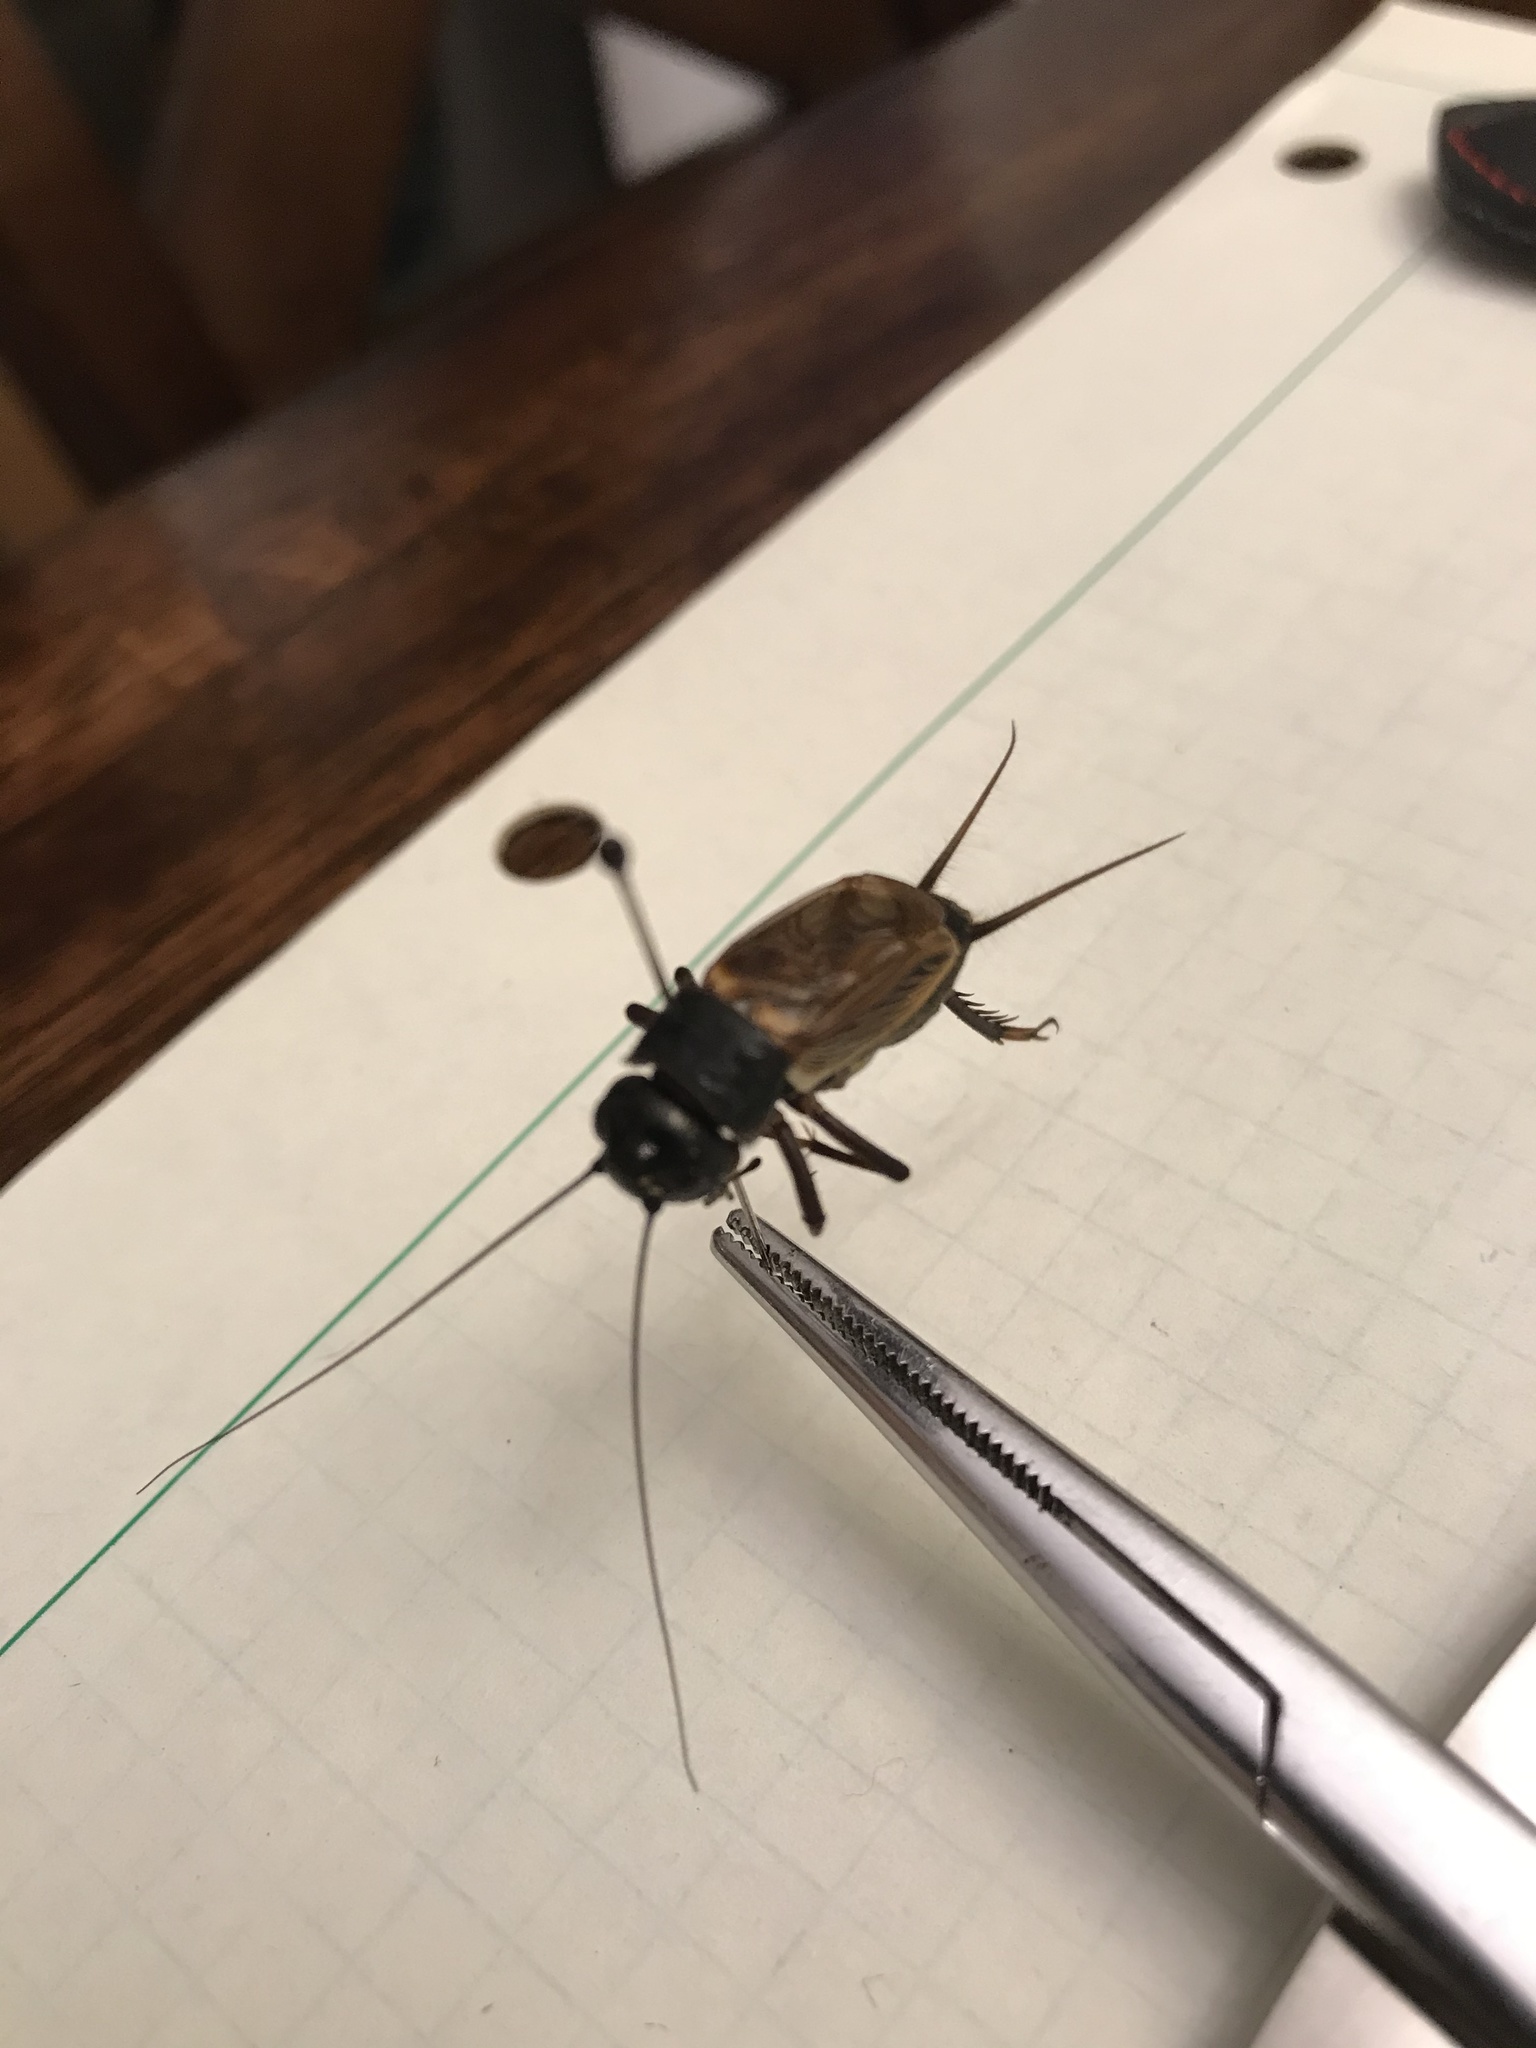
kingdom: Animalia
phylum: Arthropoda
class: Insecta
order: Orthoptera
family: Gryllidae
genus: Gryllus
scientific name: Gryllus pennsylvanicus
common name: Fall field cricket
